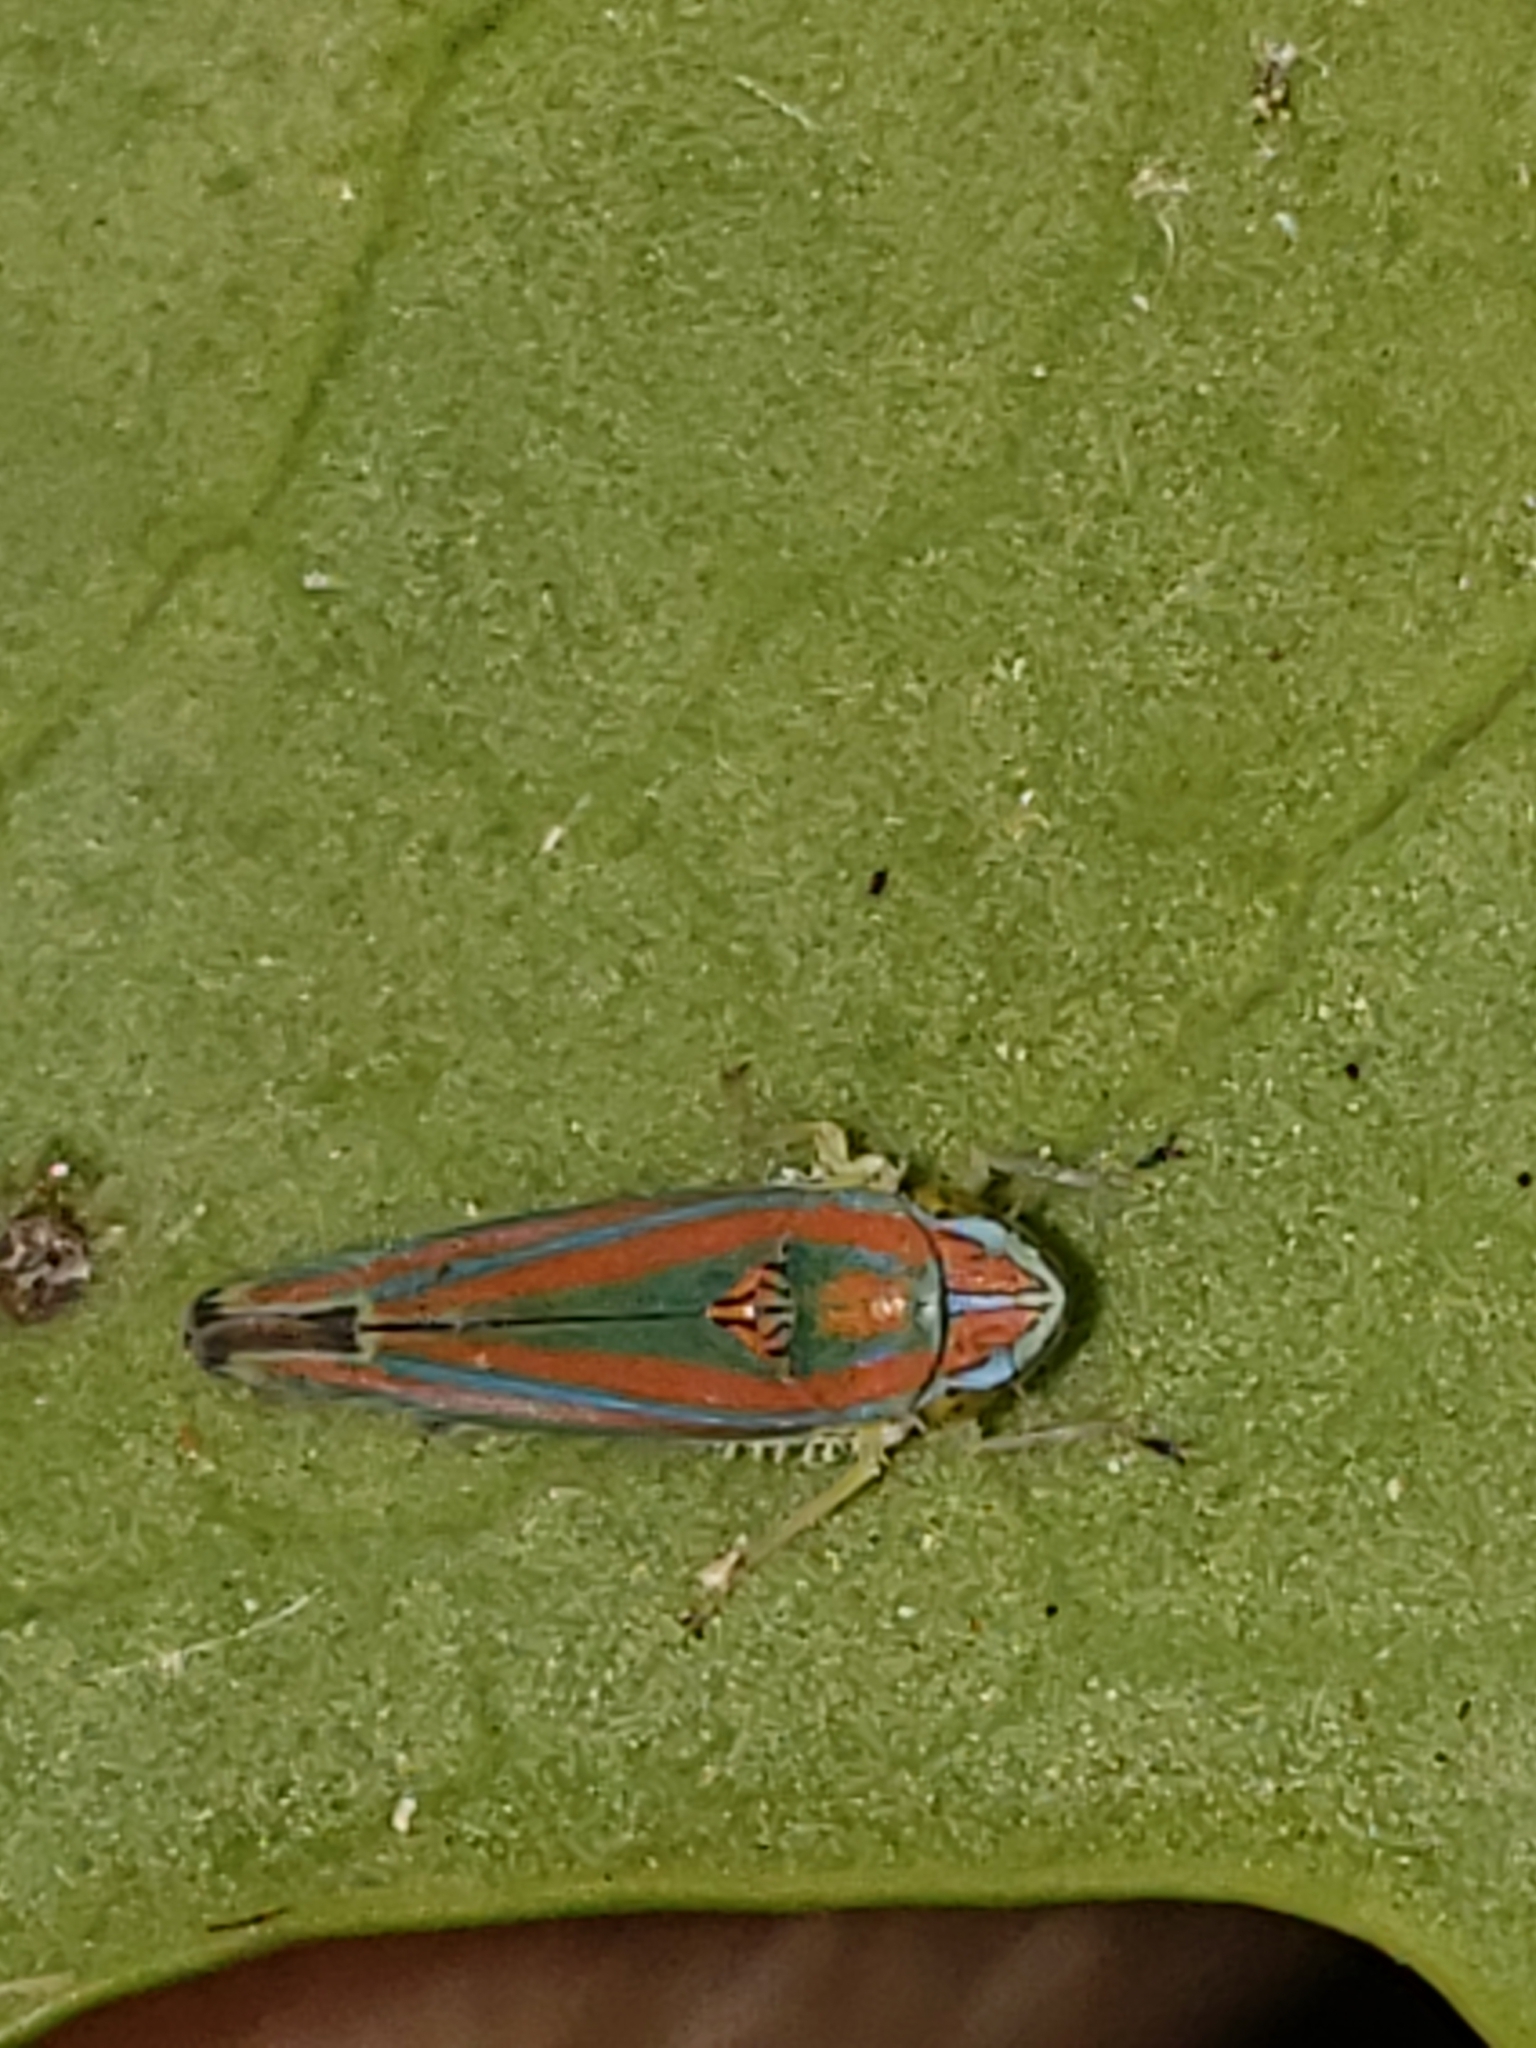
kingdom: Animalia
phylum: Arthropoda
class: Insecta
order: Hemiptera
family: Cicadellidae
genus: Graphocephala
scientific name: Graphocephala versuta
